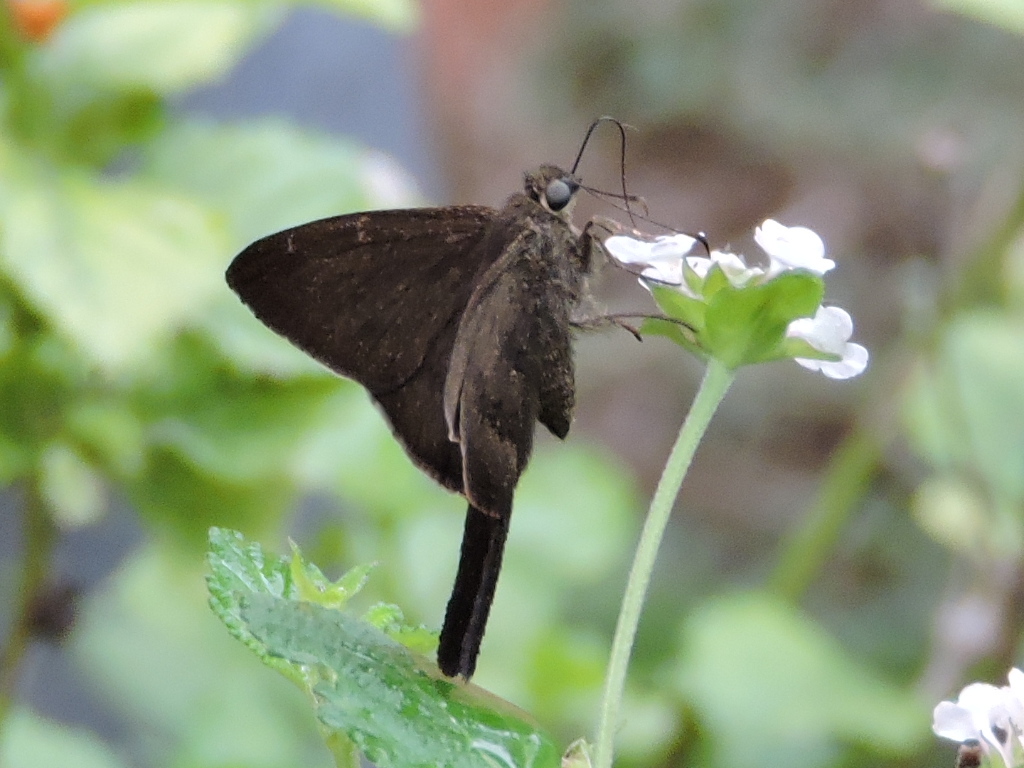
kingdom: Animalia
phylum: Arthropoda
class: Insecta
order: Lepidoptera
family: Hesperiidae
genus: Urbanus
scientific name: Urbanus procne
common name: Brown longtail
